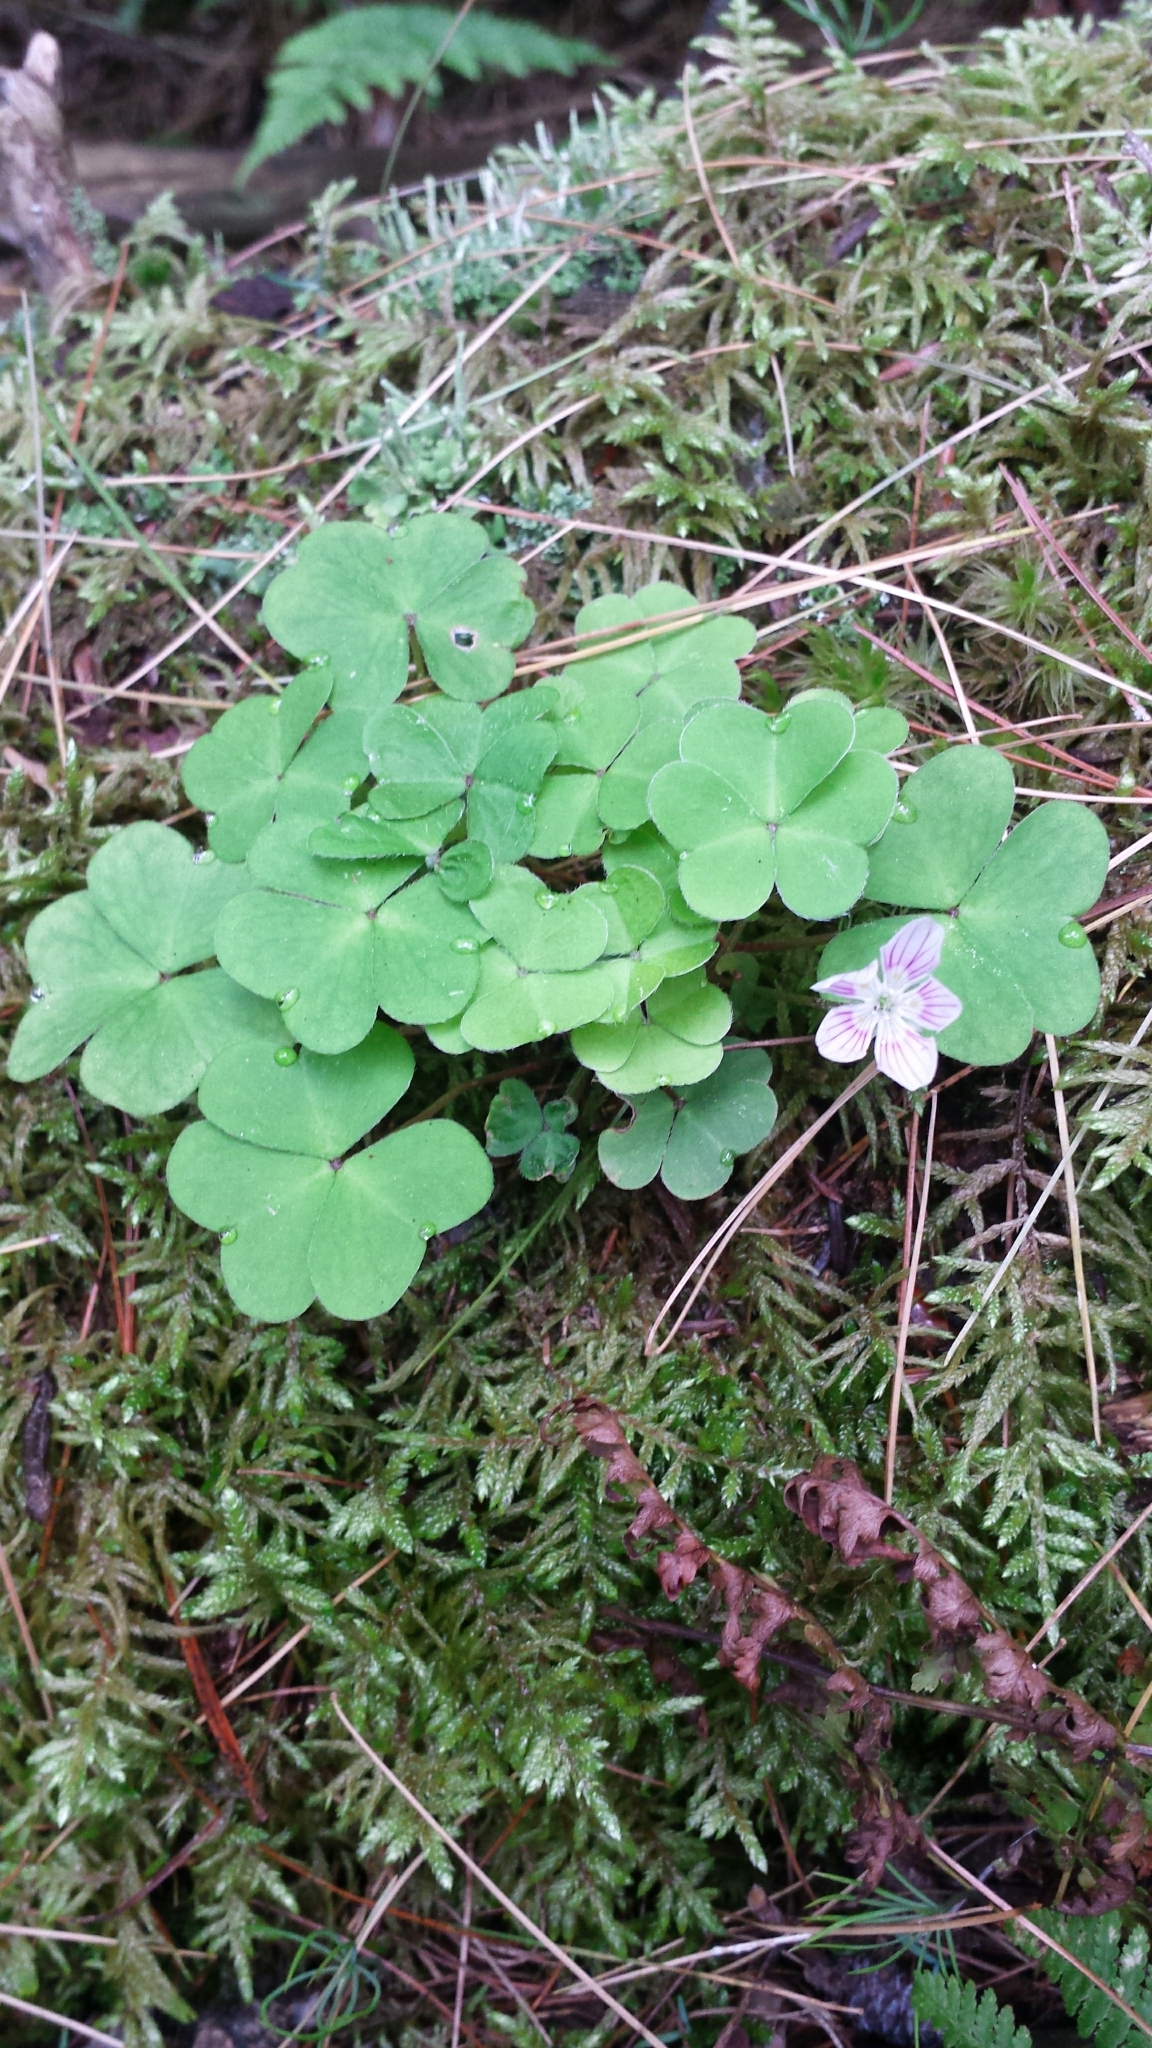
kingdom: Plantae
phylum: Tracheophyta
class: Magnoliopsida
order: Oxalidales
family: Oxalidaceae
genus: Oxalis
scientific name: Oxalis montana
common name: American wood-sorrel
